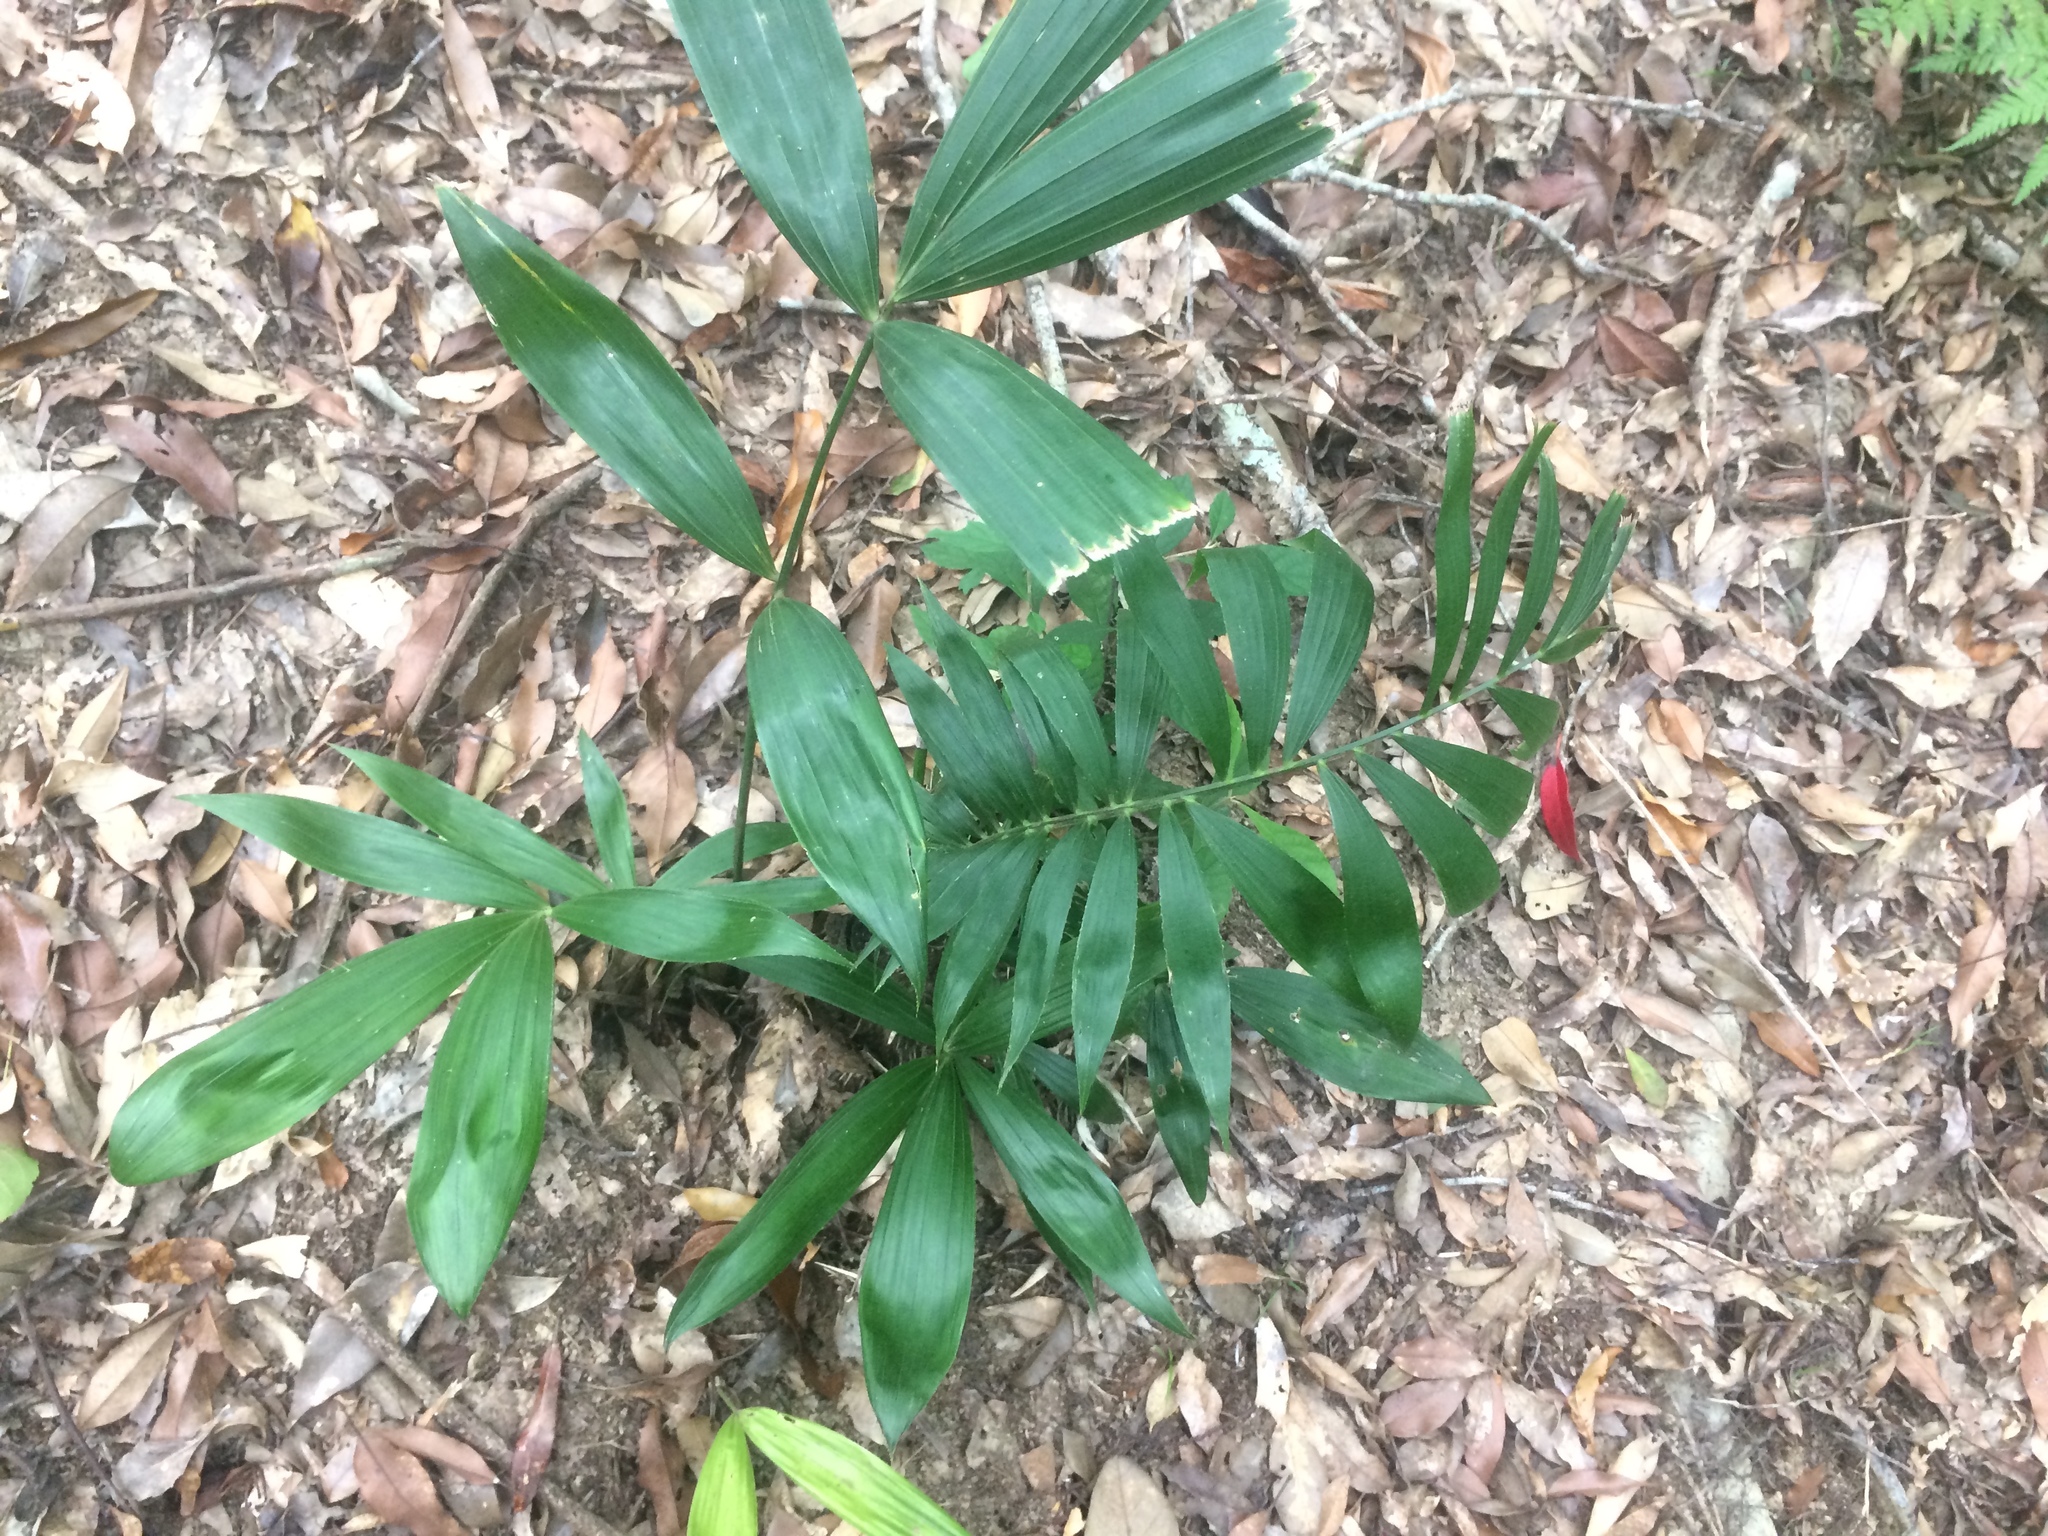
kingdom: Plantae
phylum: Tracheophyta
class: Liliopsida
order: Arecales
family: Arecaceae
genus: Calamus
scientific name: Calamus formosanus
